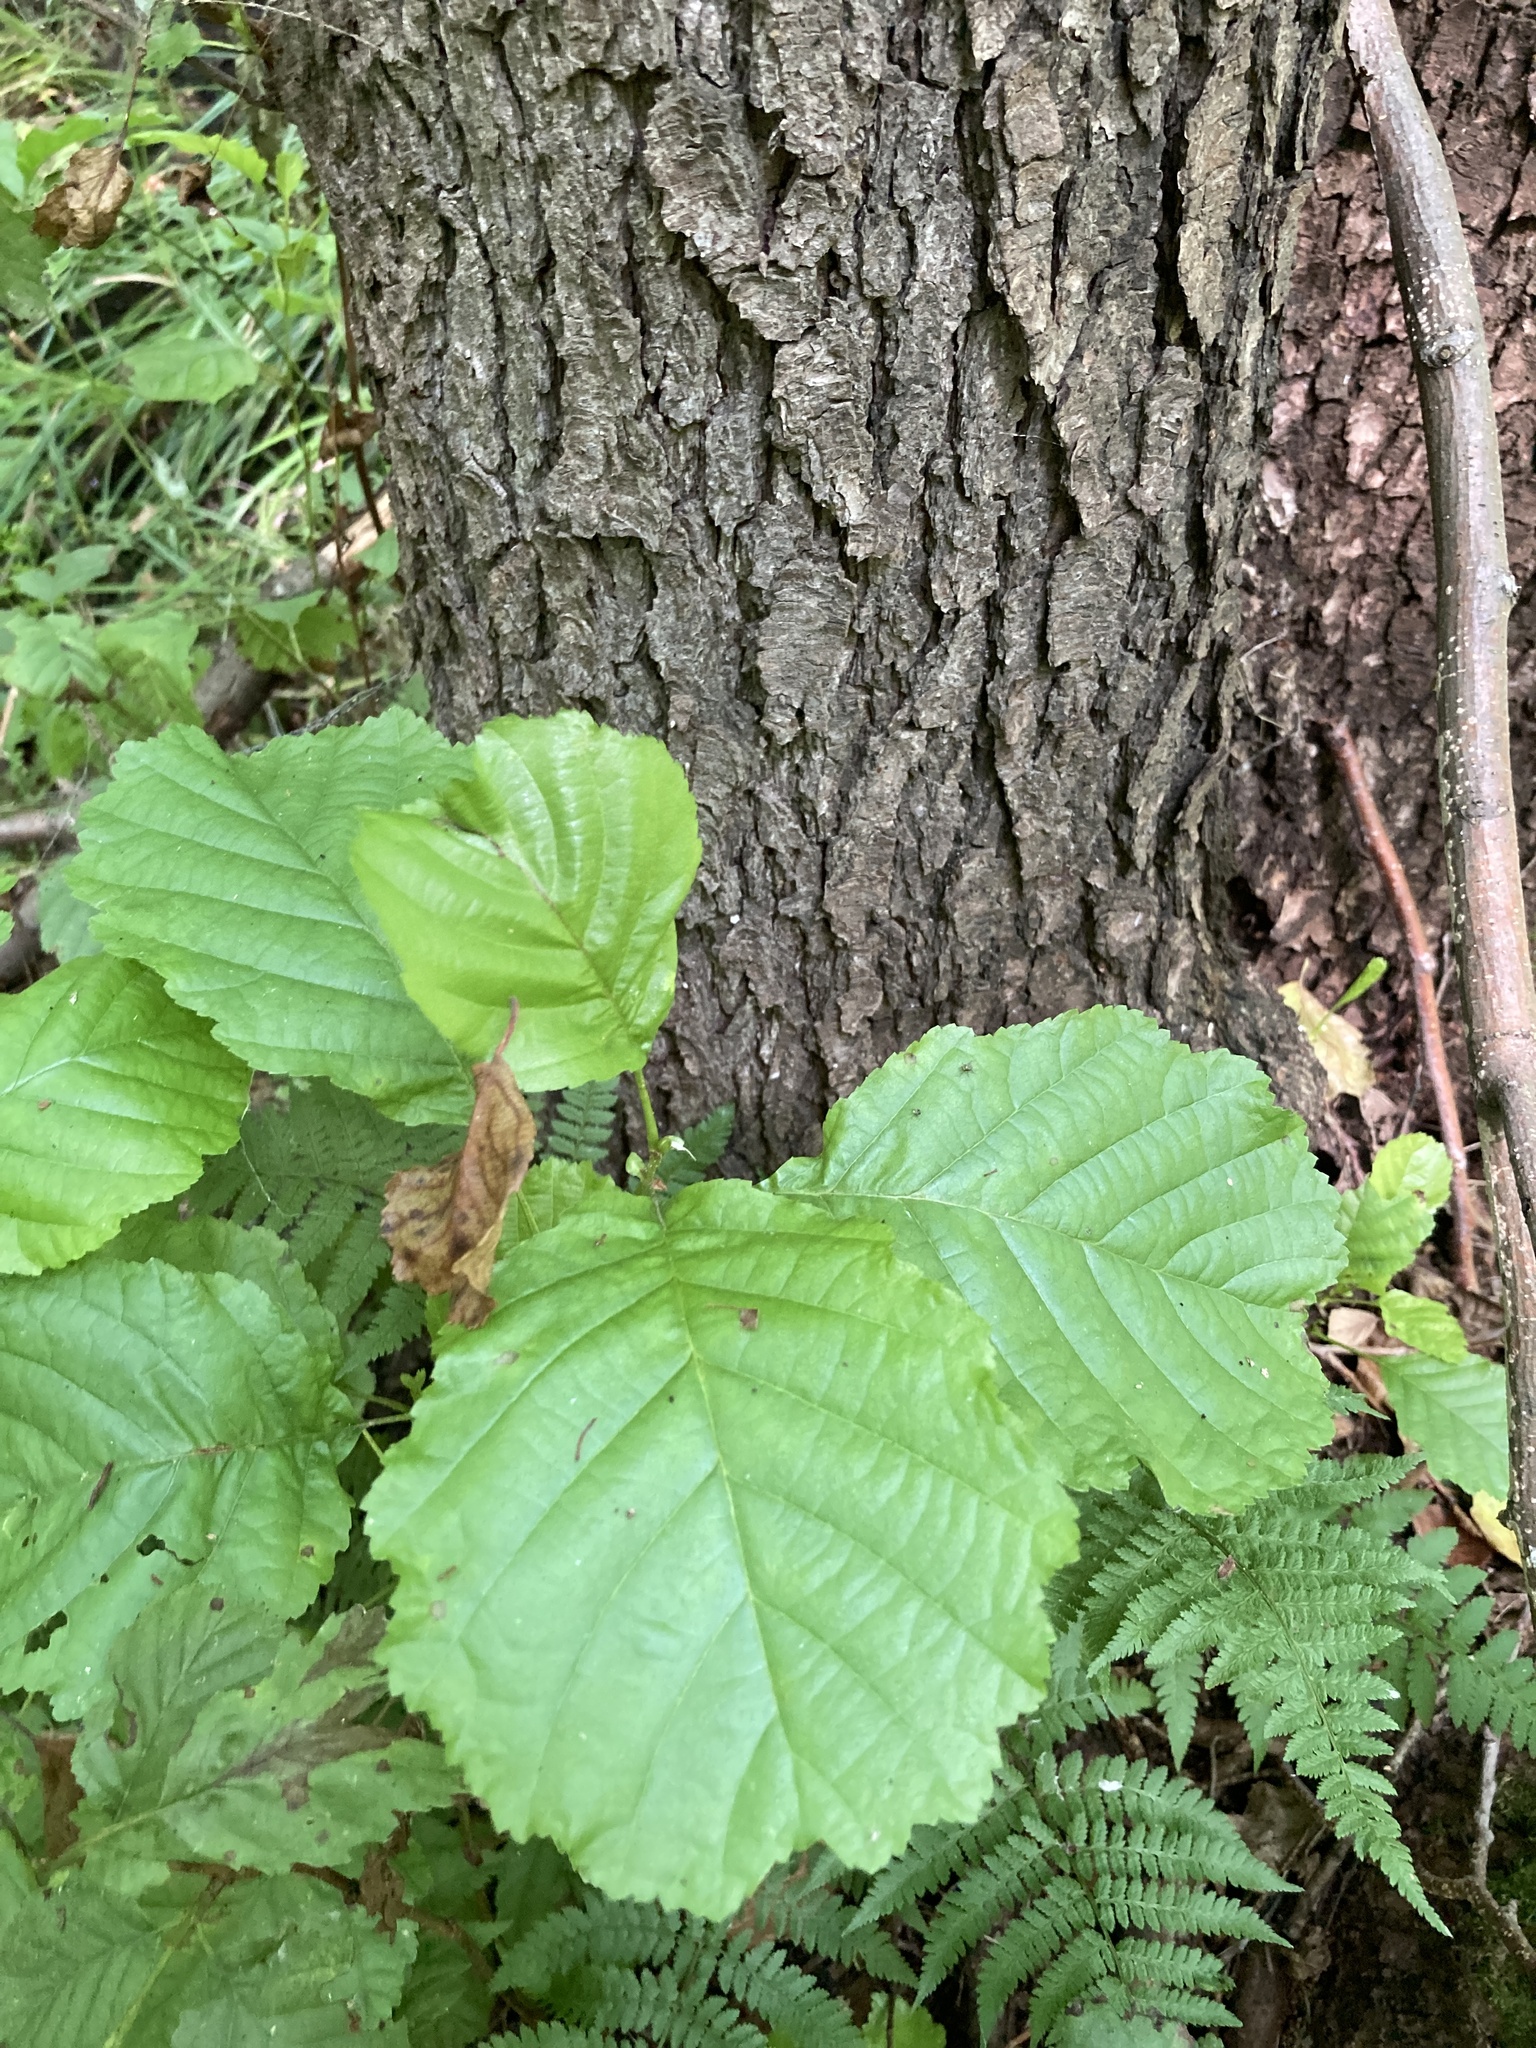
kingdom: Plantae
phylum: Tracheophyta
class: Magnoliopsida
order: Fagales
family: Betulaceae
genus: Alnus
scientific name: Alnus glutinosa
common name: Black alder
